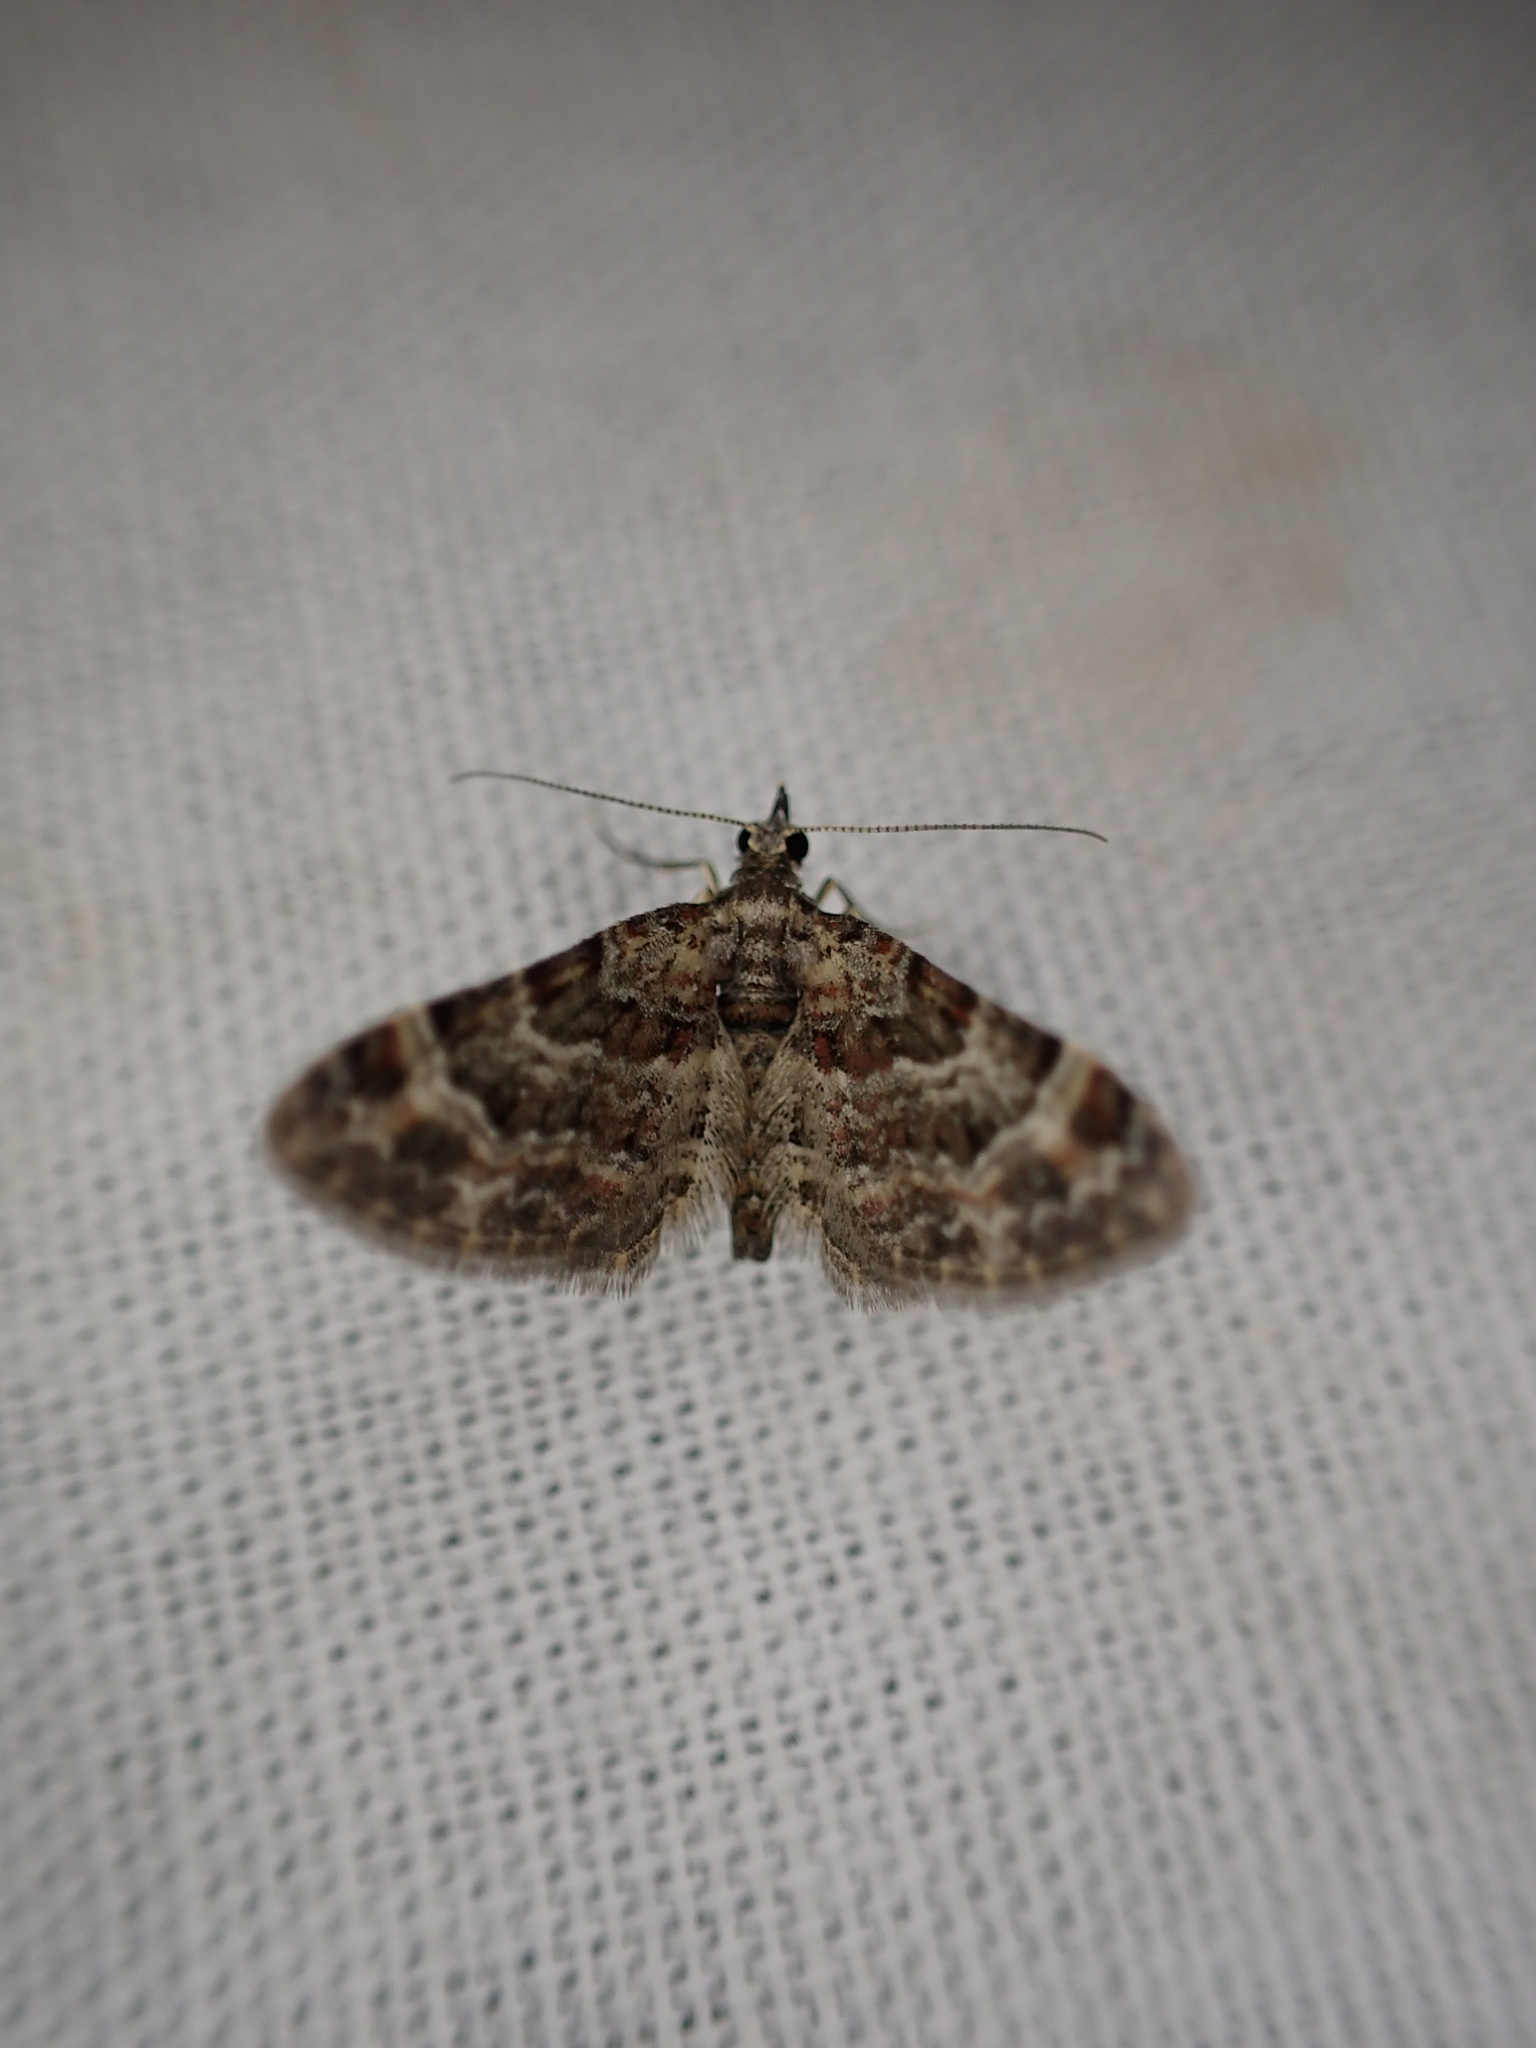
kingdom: Animalia
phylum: Arthropoda
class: Insecta
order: Lepidoptera
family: Geometridae
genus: Gymnoscelis
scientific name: Gymnoscelis rufifasciata
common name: Double-striped pug
